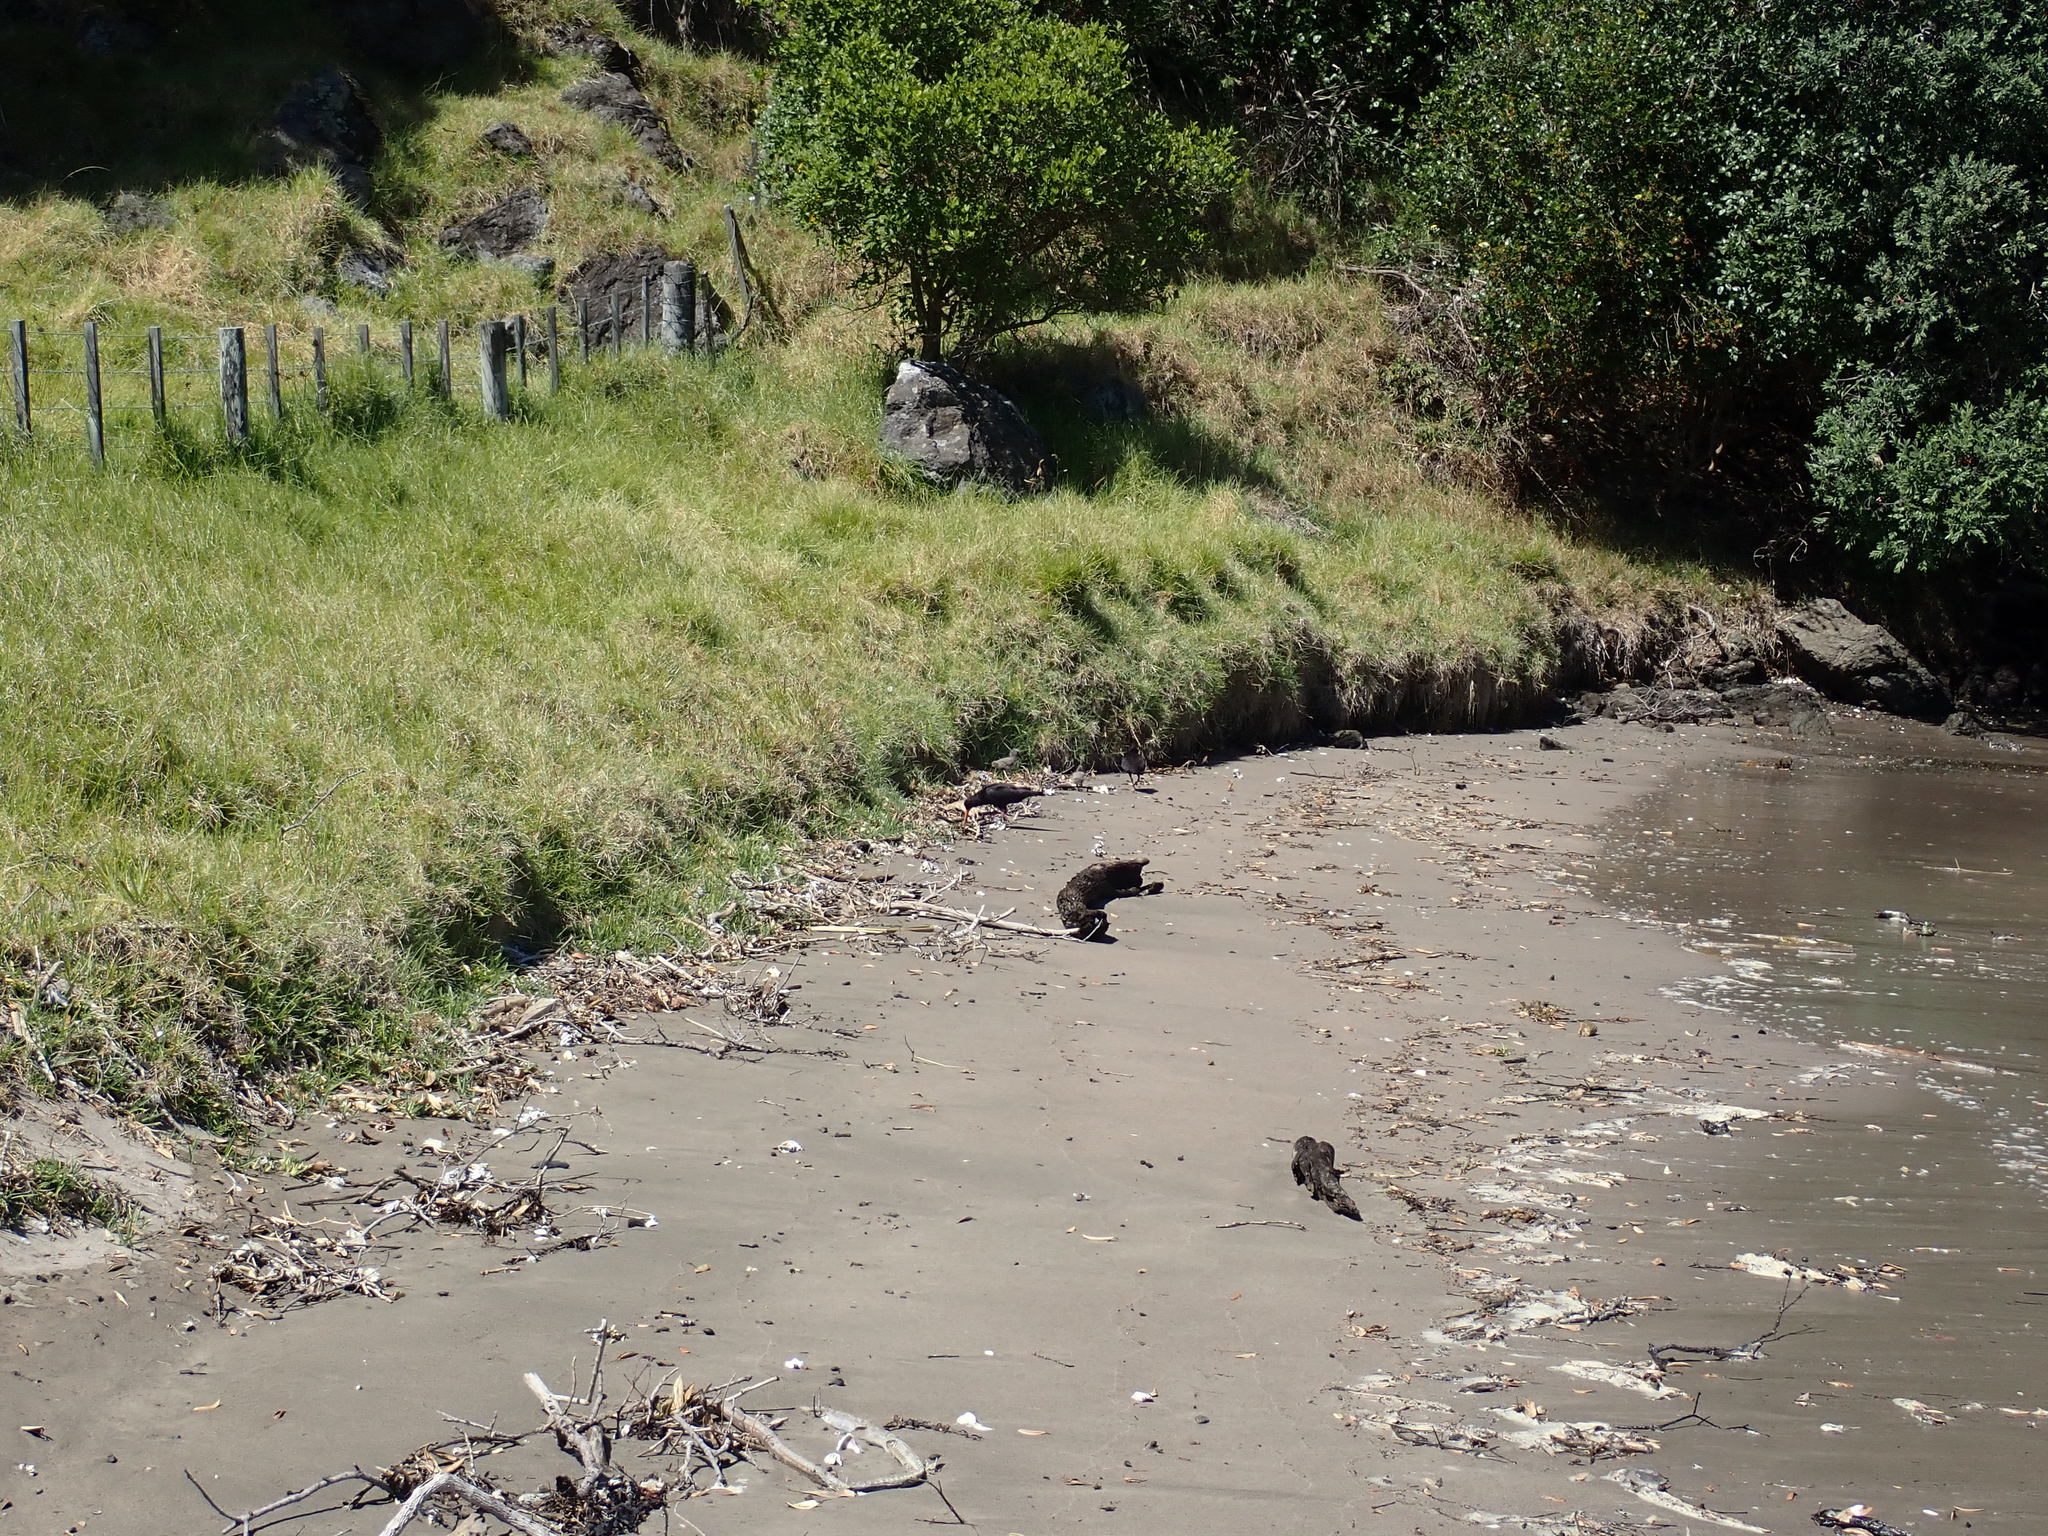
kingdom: Animalia
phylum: Chordata
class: Aves
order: Charadriiformes
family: Haematopodidae
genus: Haematopus
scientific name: Haematopus unicolor
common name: Variable oystercatcher
